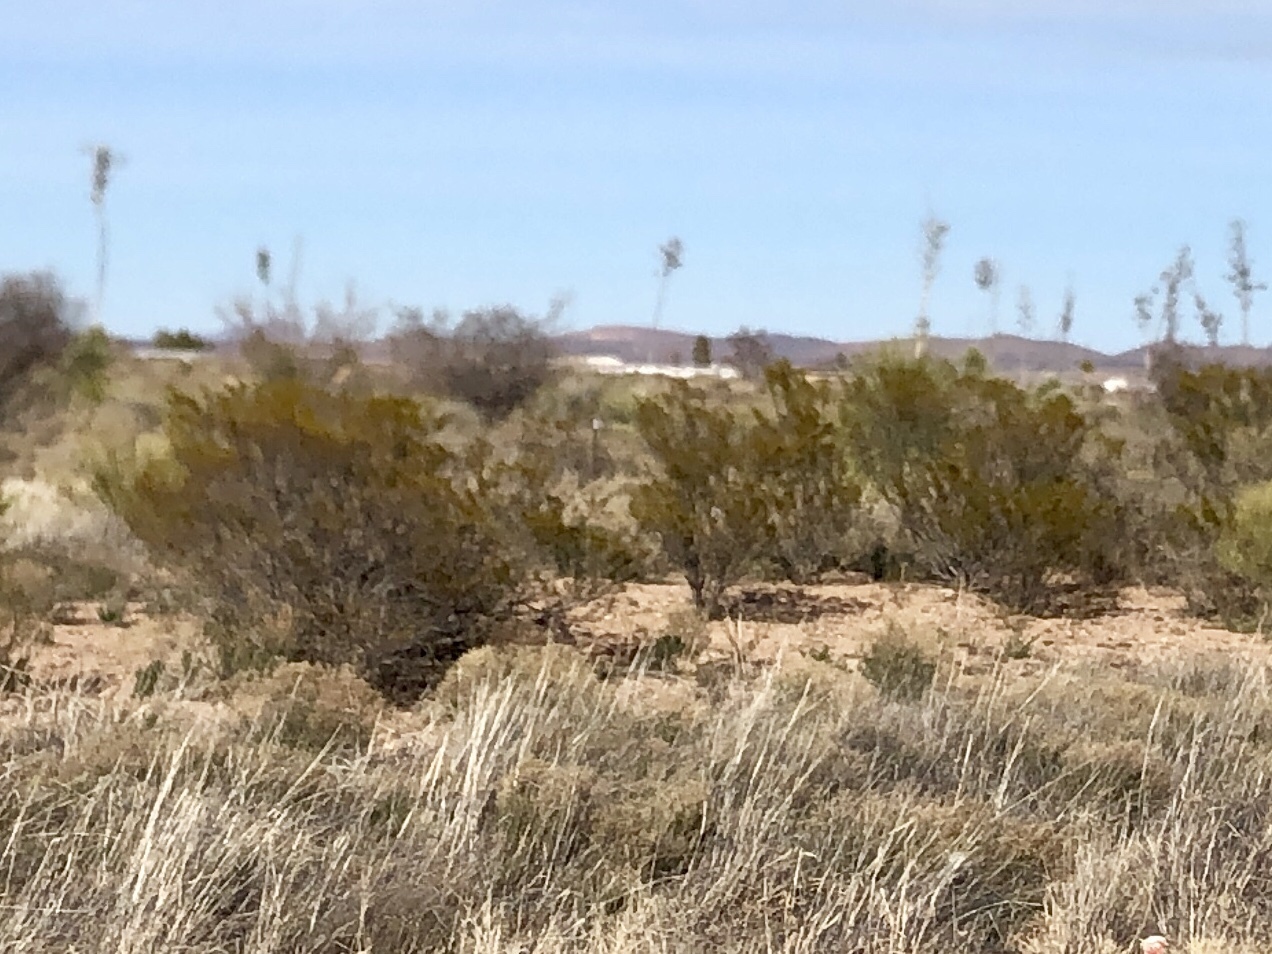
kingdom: Plantae
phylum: Tracheophyta
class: Magnoliopsida
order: Zygophyllales
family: Zygophyllaceae
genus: Larrea
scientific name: Larrea tridentata
